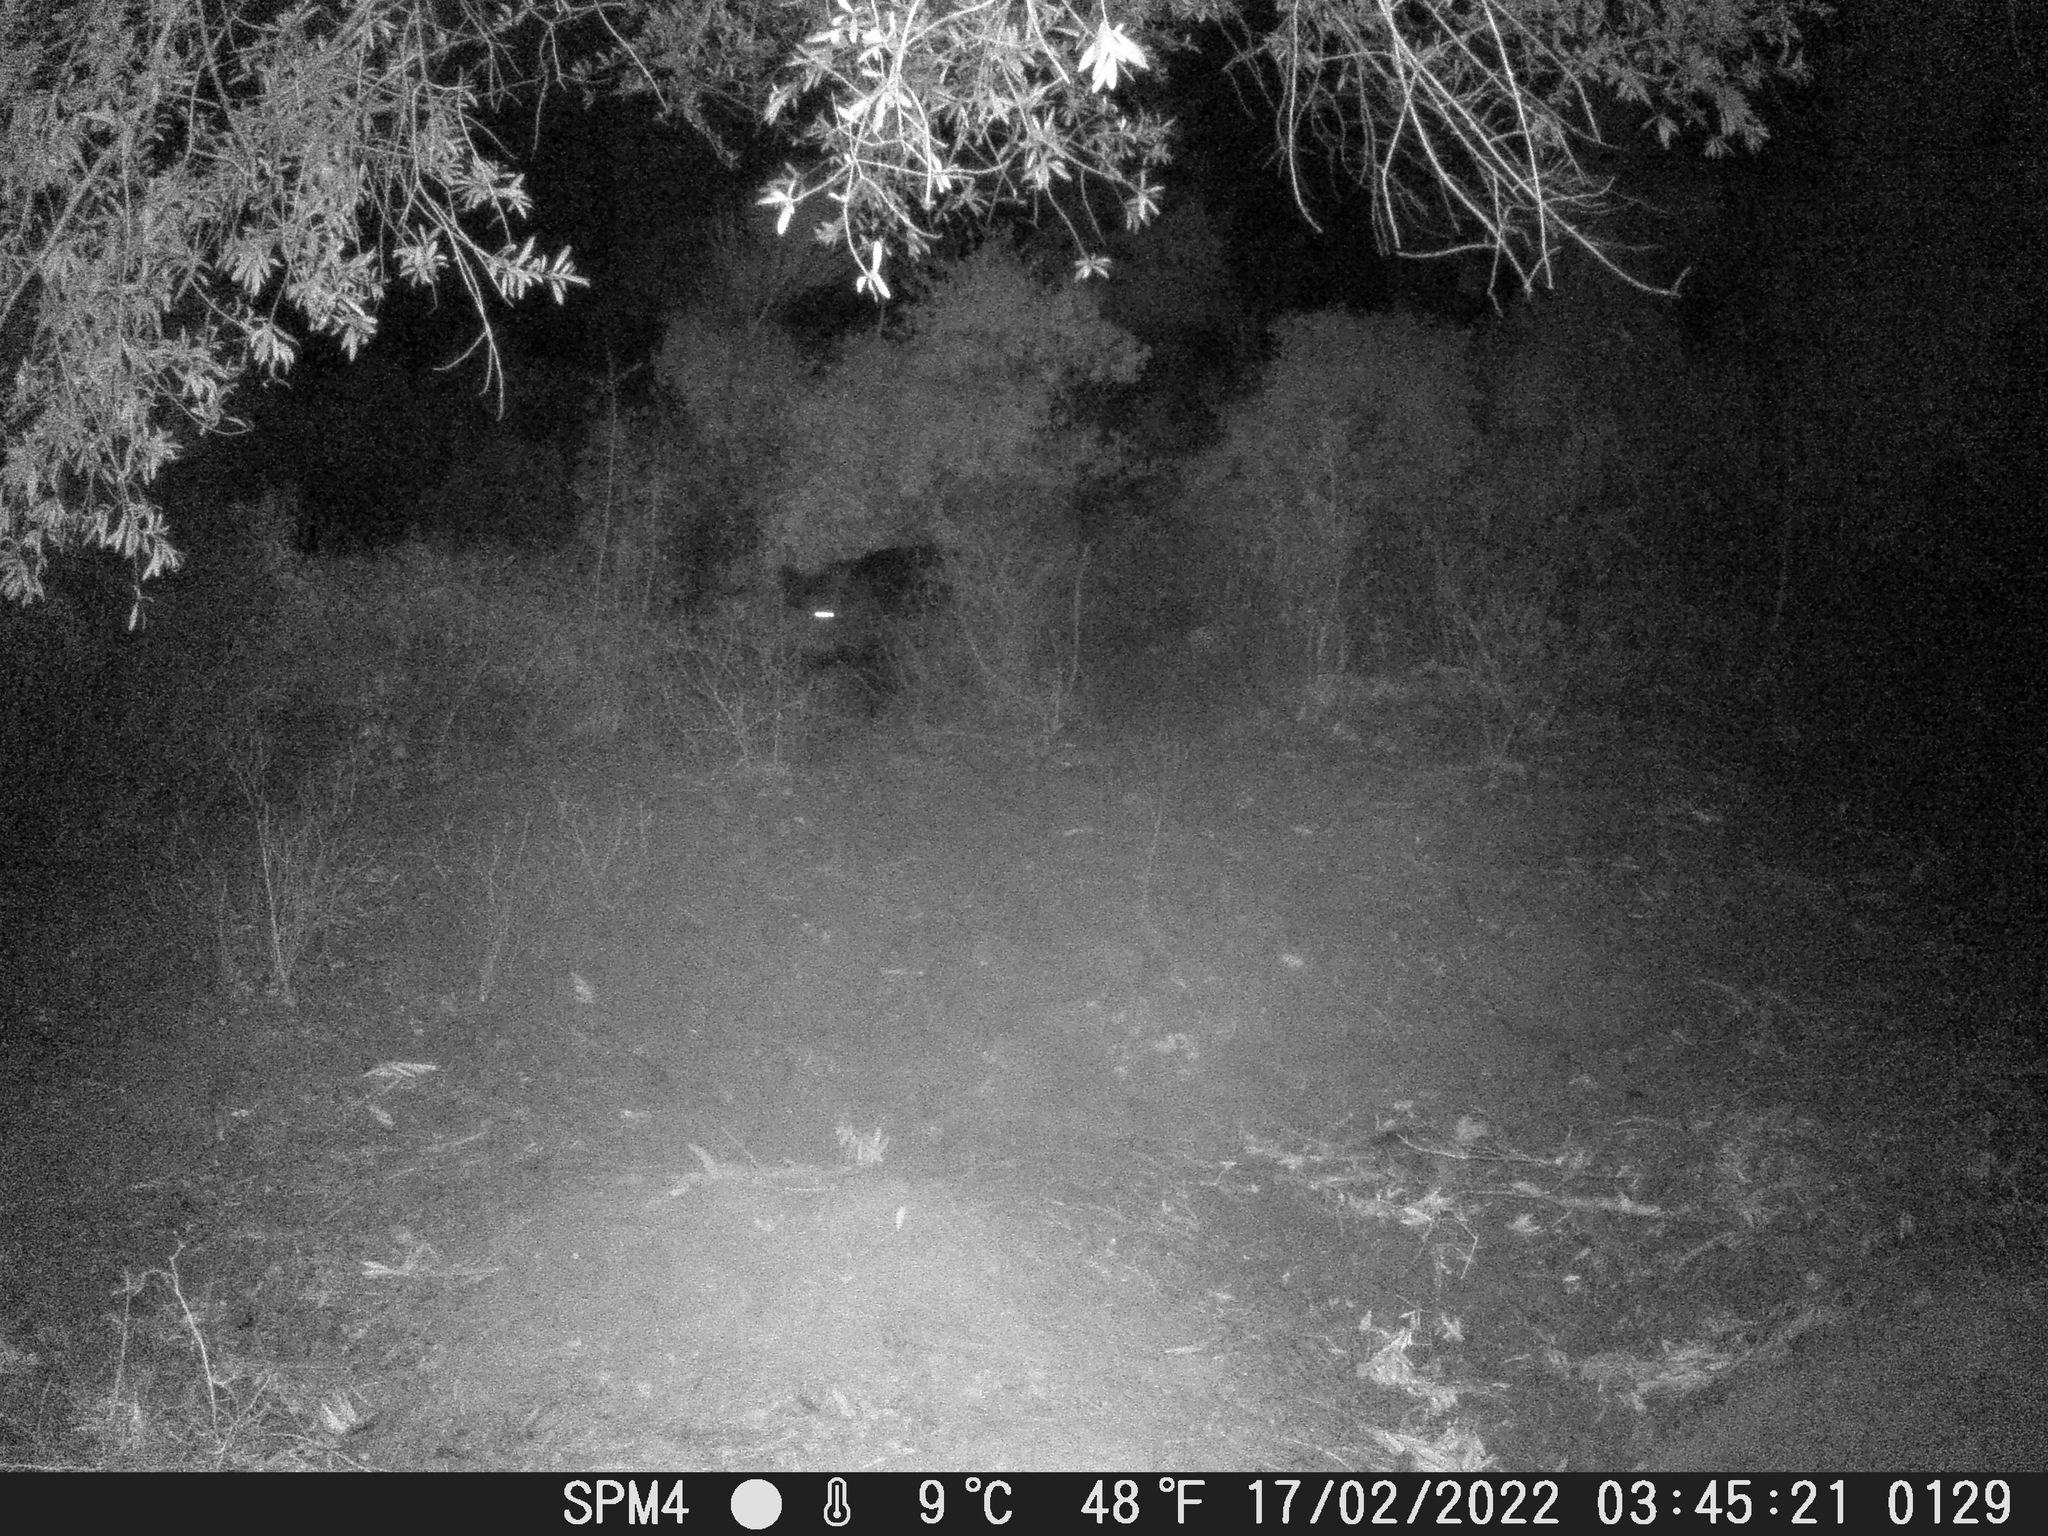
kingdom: Animalia
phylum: Chordata
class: Mammalia
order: Artiodactyla
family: Suidae
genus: Sus
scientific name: Sus scrofa
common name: Wild boar
